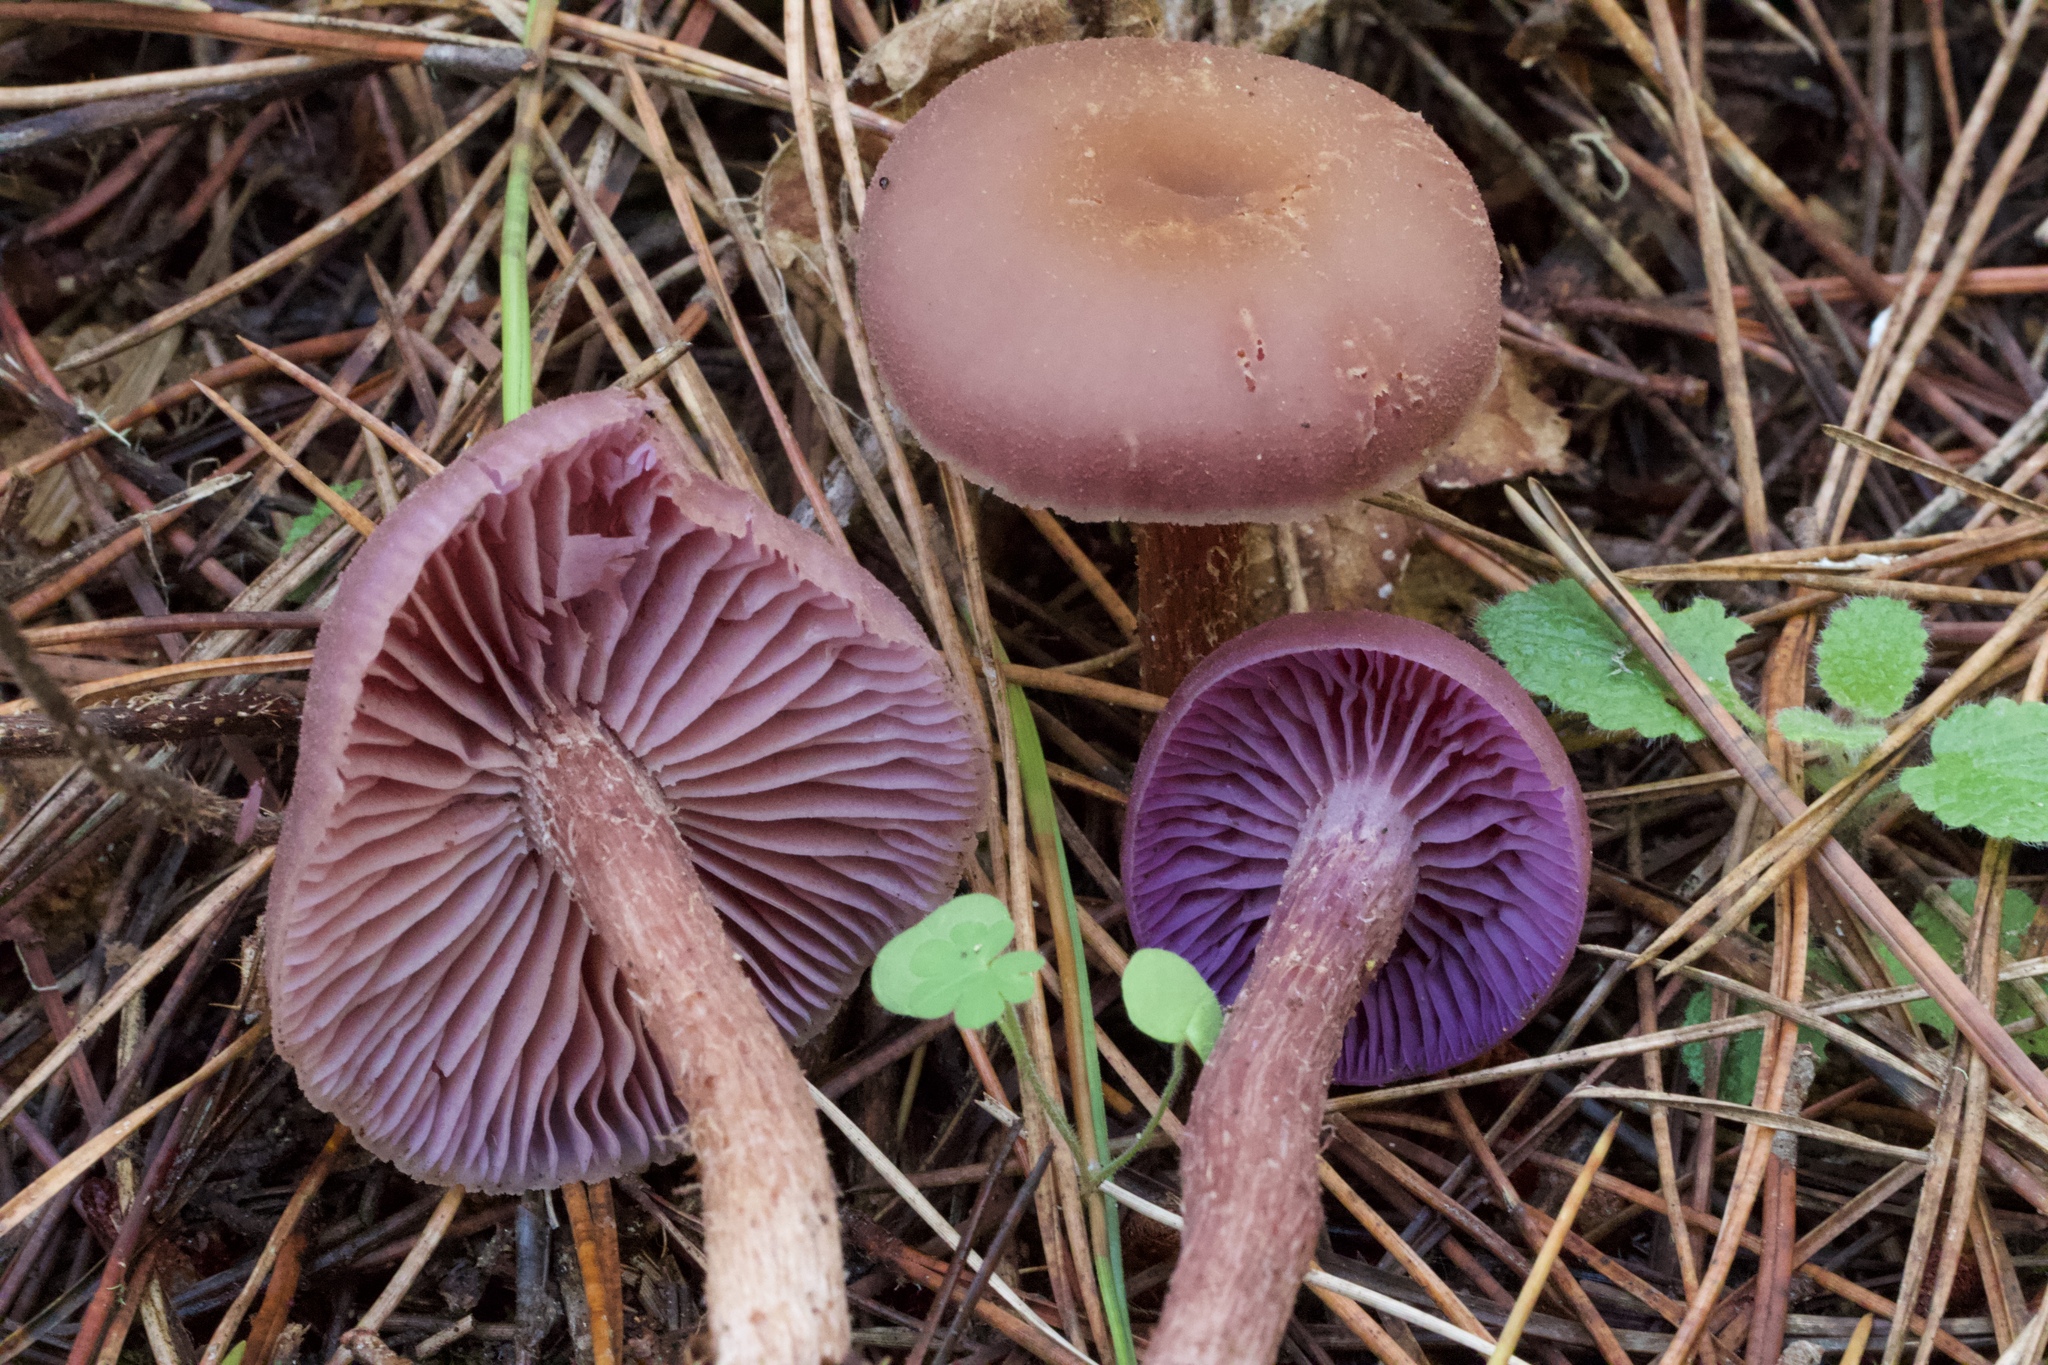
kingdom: Fungi
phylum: Basidiomycota
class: Agaricomycetes
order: Agaricales
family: Hydnangiaceae
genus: Laccaria
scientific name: Laccaria amethysteo-occidentalis
